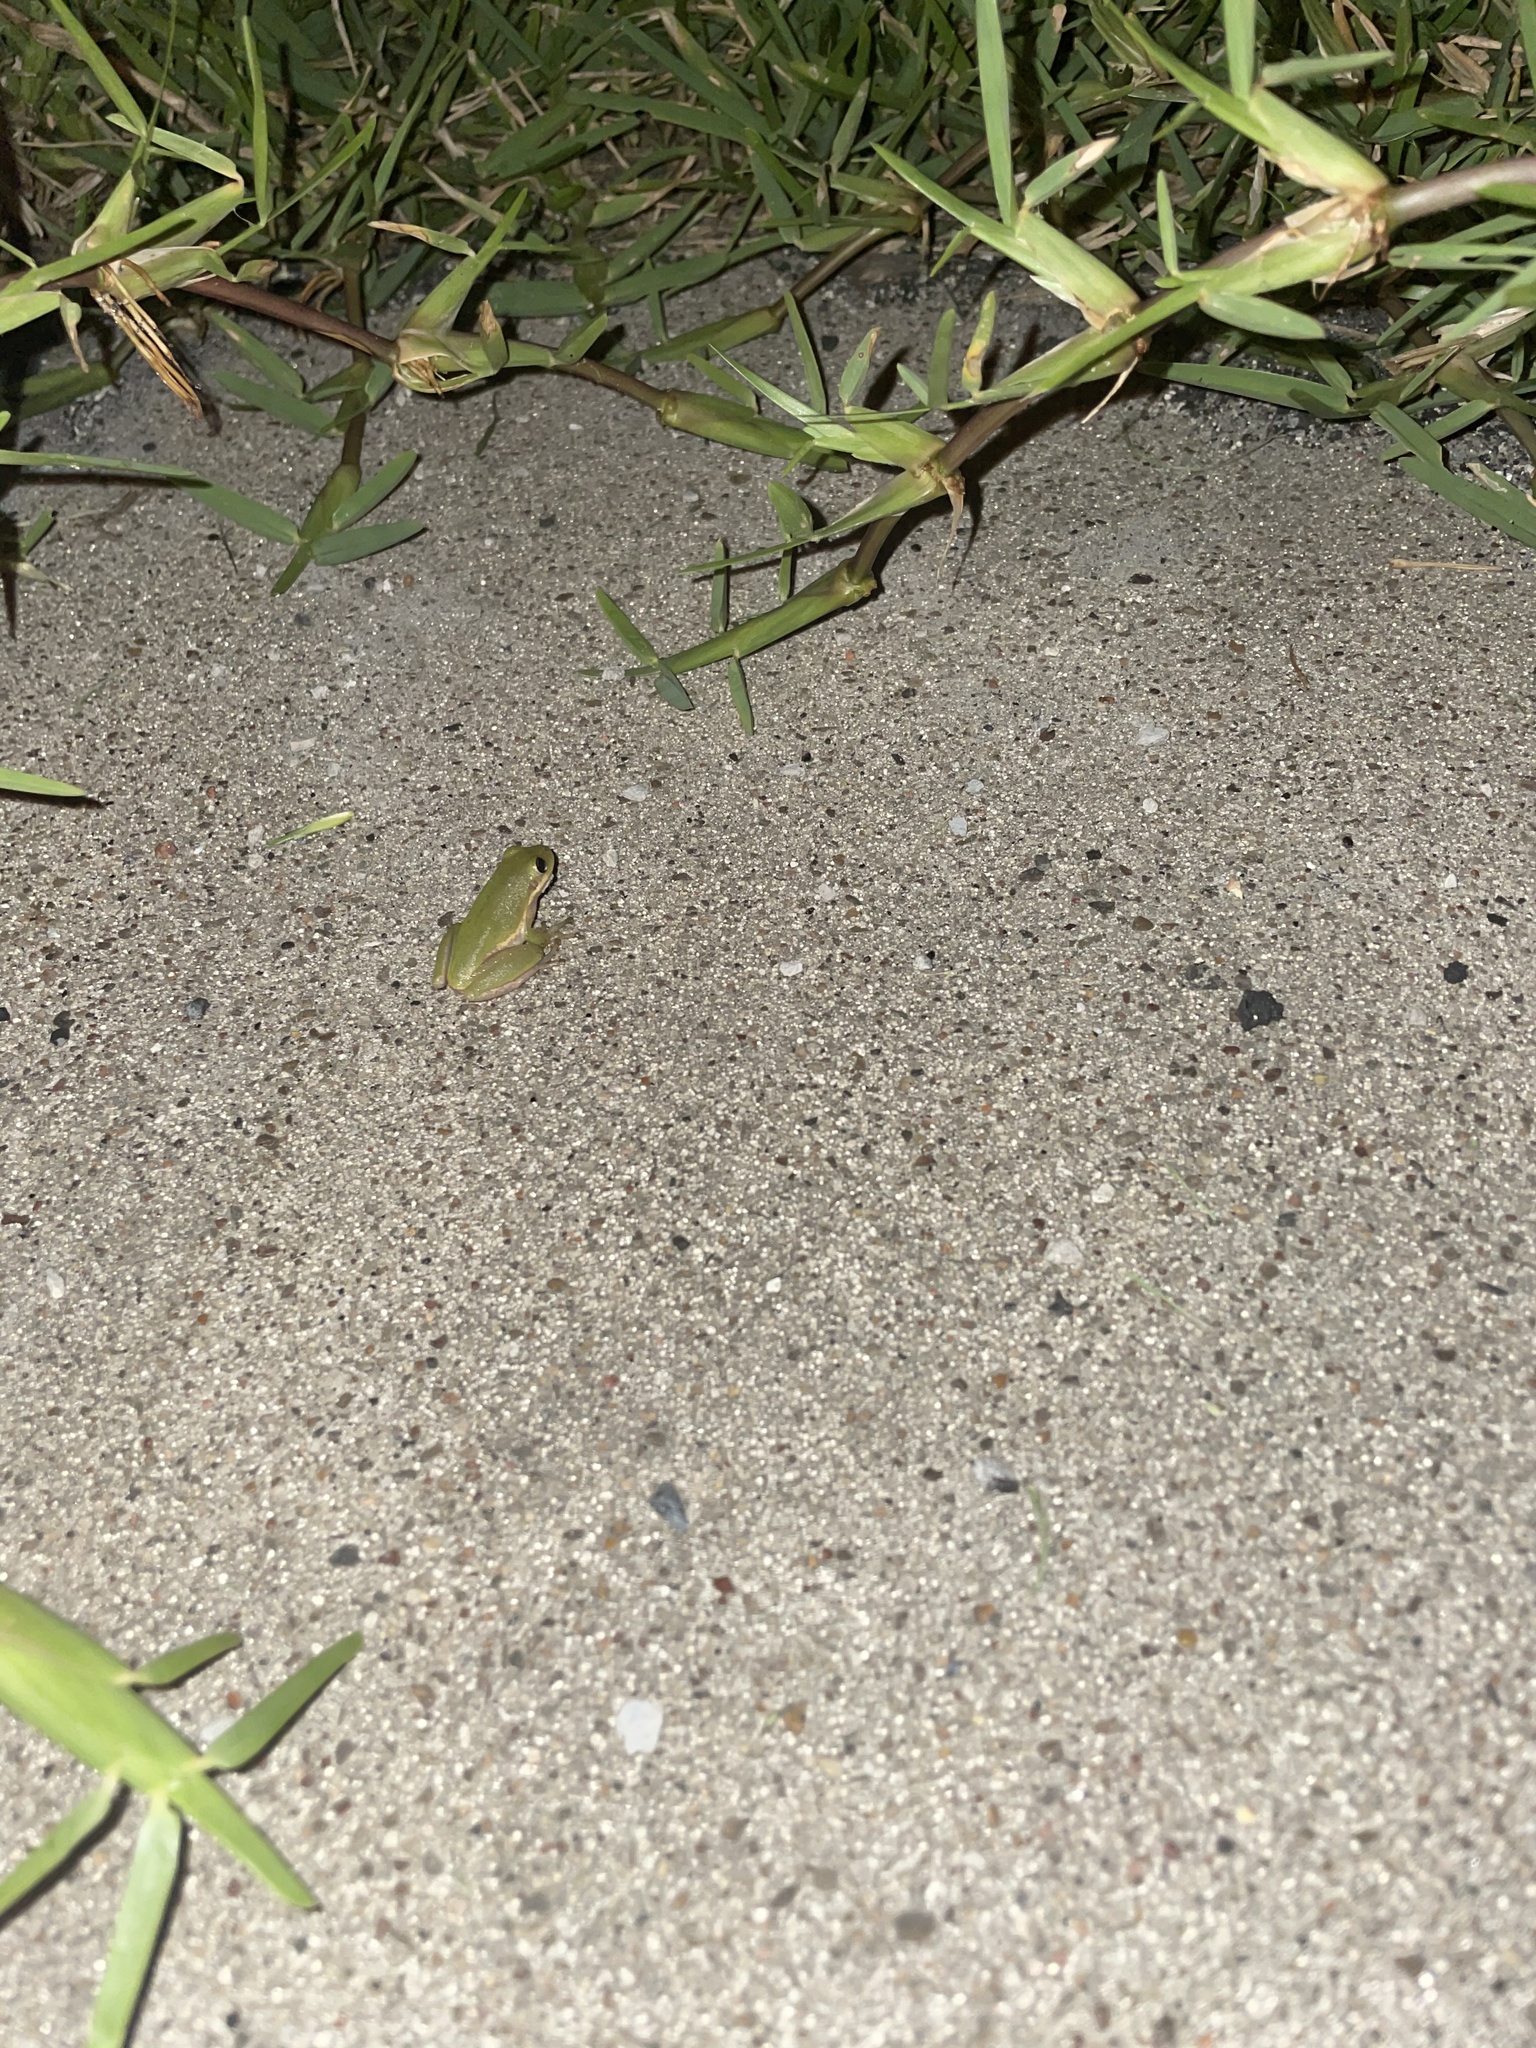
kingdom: Animalia
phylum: Chordata
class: Amphibia
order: Anura
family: Hylidae
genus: Dryophytes
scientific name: Dryophytes squirellus
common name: Squirrel treefrog
